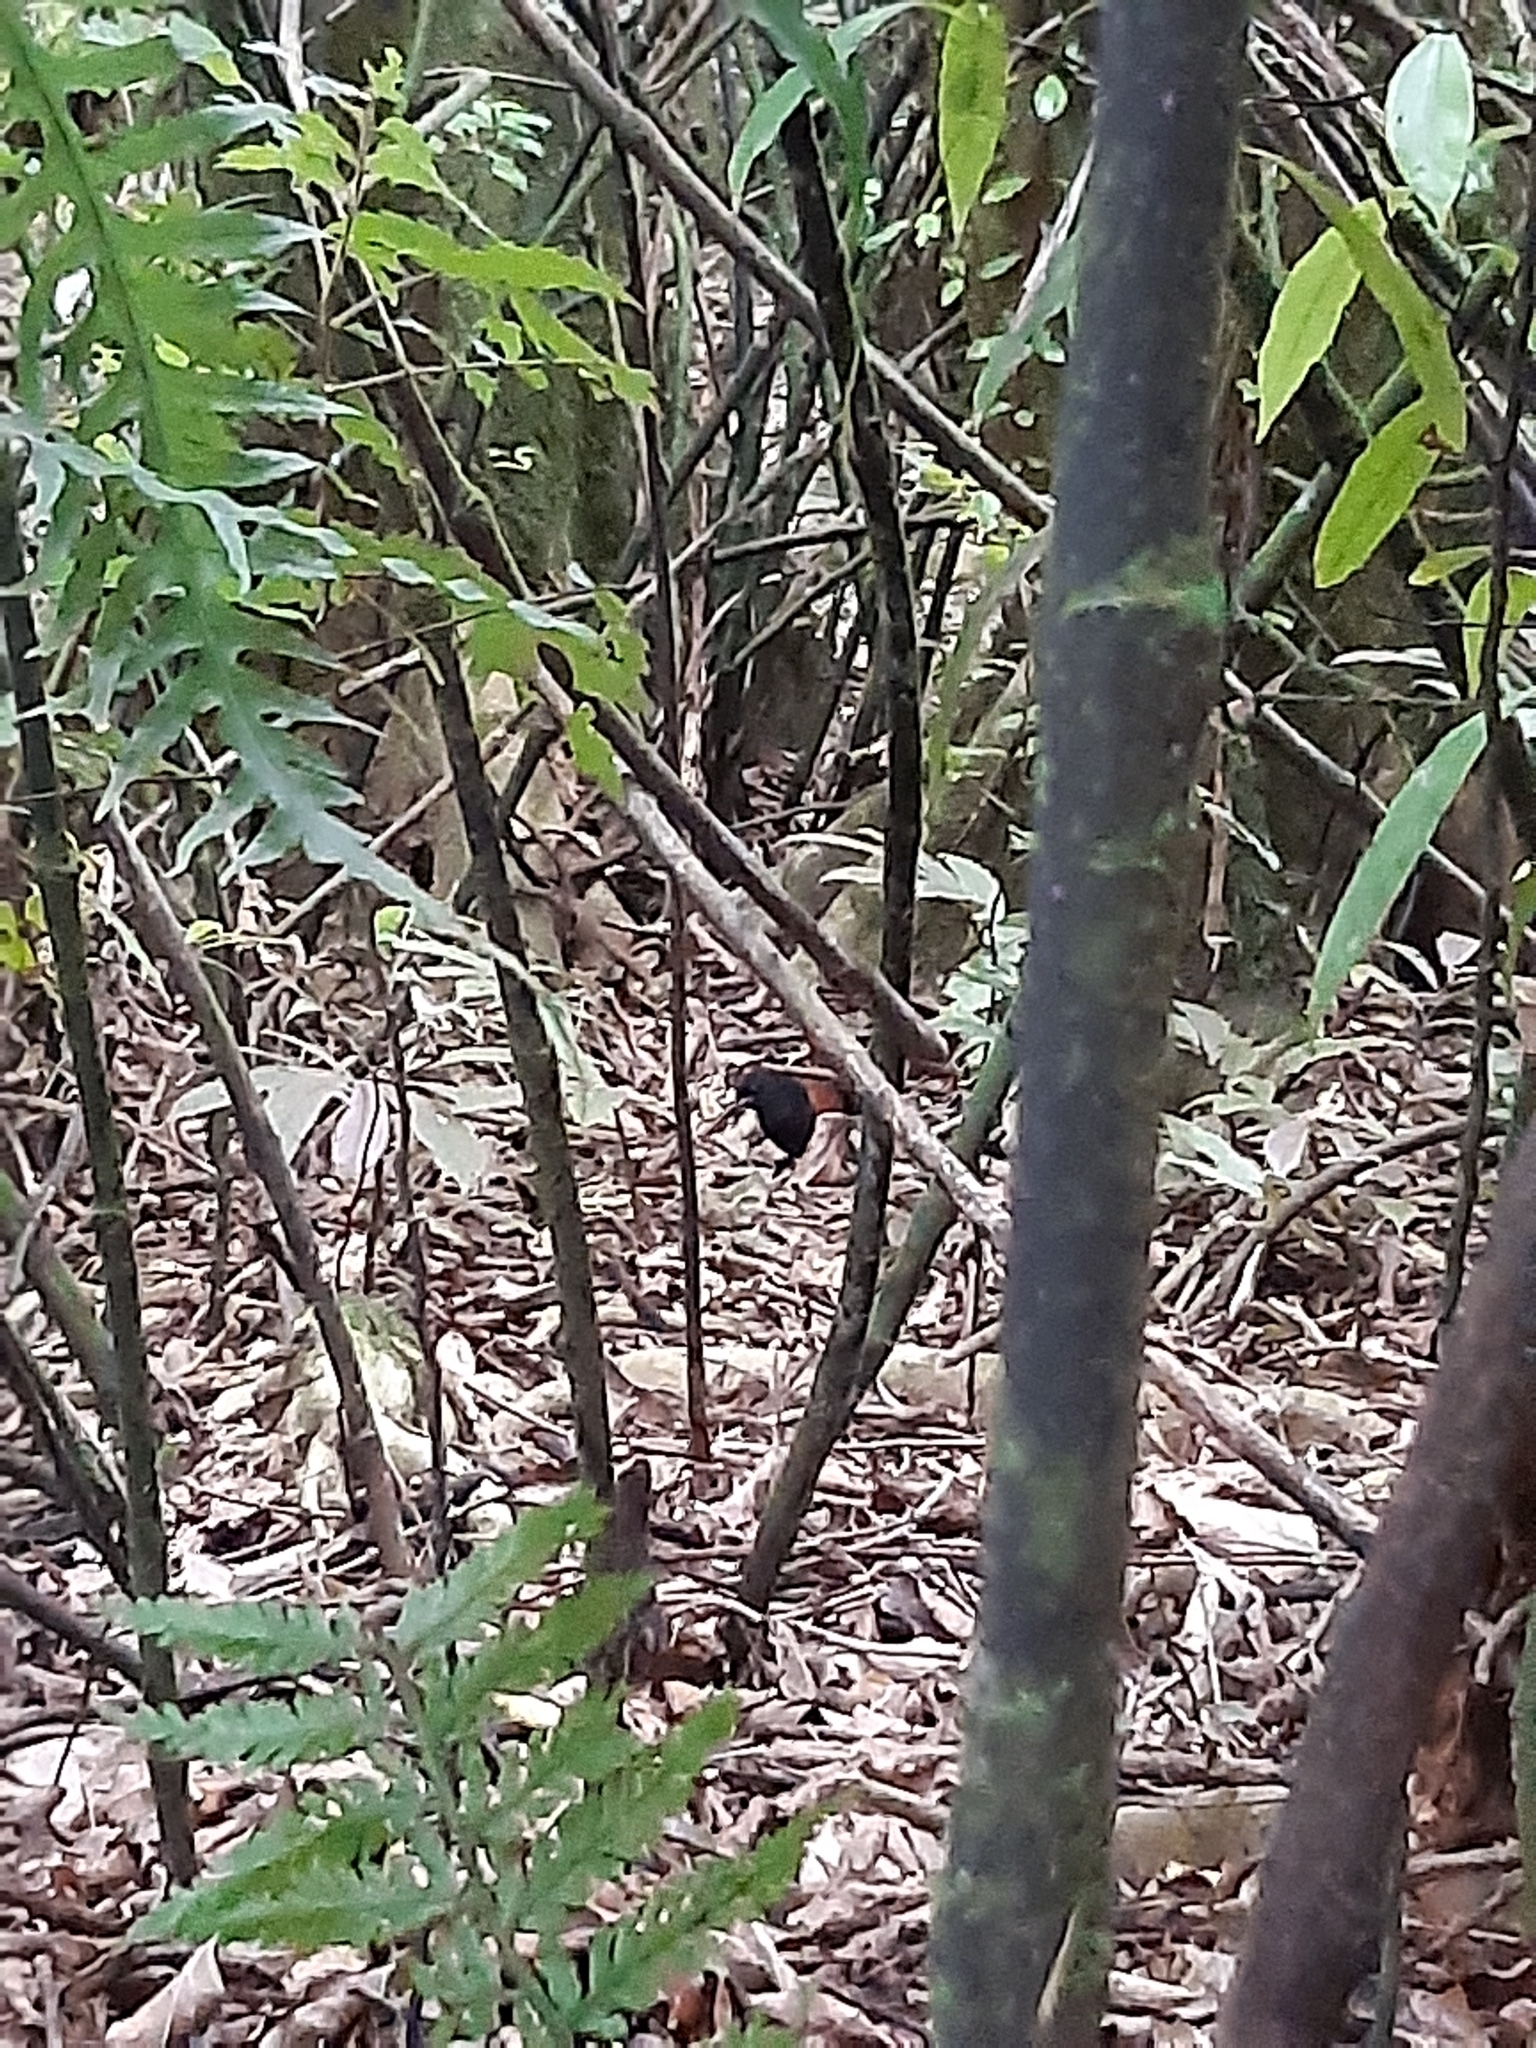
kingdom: Animalia
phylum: Chordata
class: Aves
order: Passeriformes
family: Callaeatidae
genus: Philesturnus
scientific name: Philesturnus carunculatus
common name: South island saddleback
